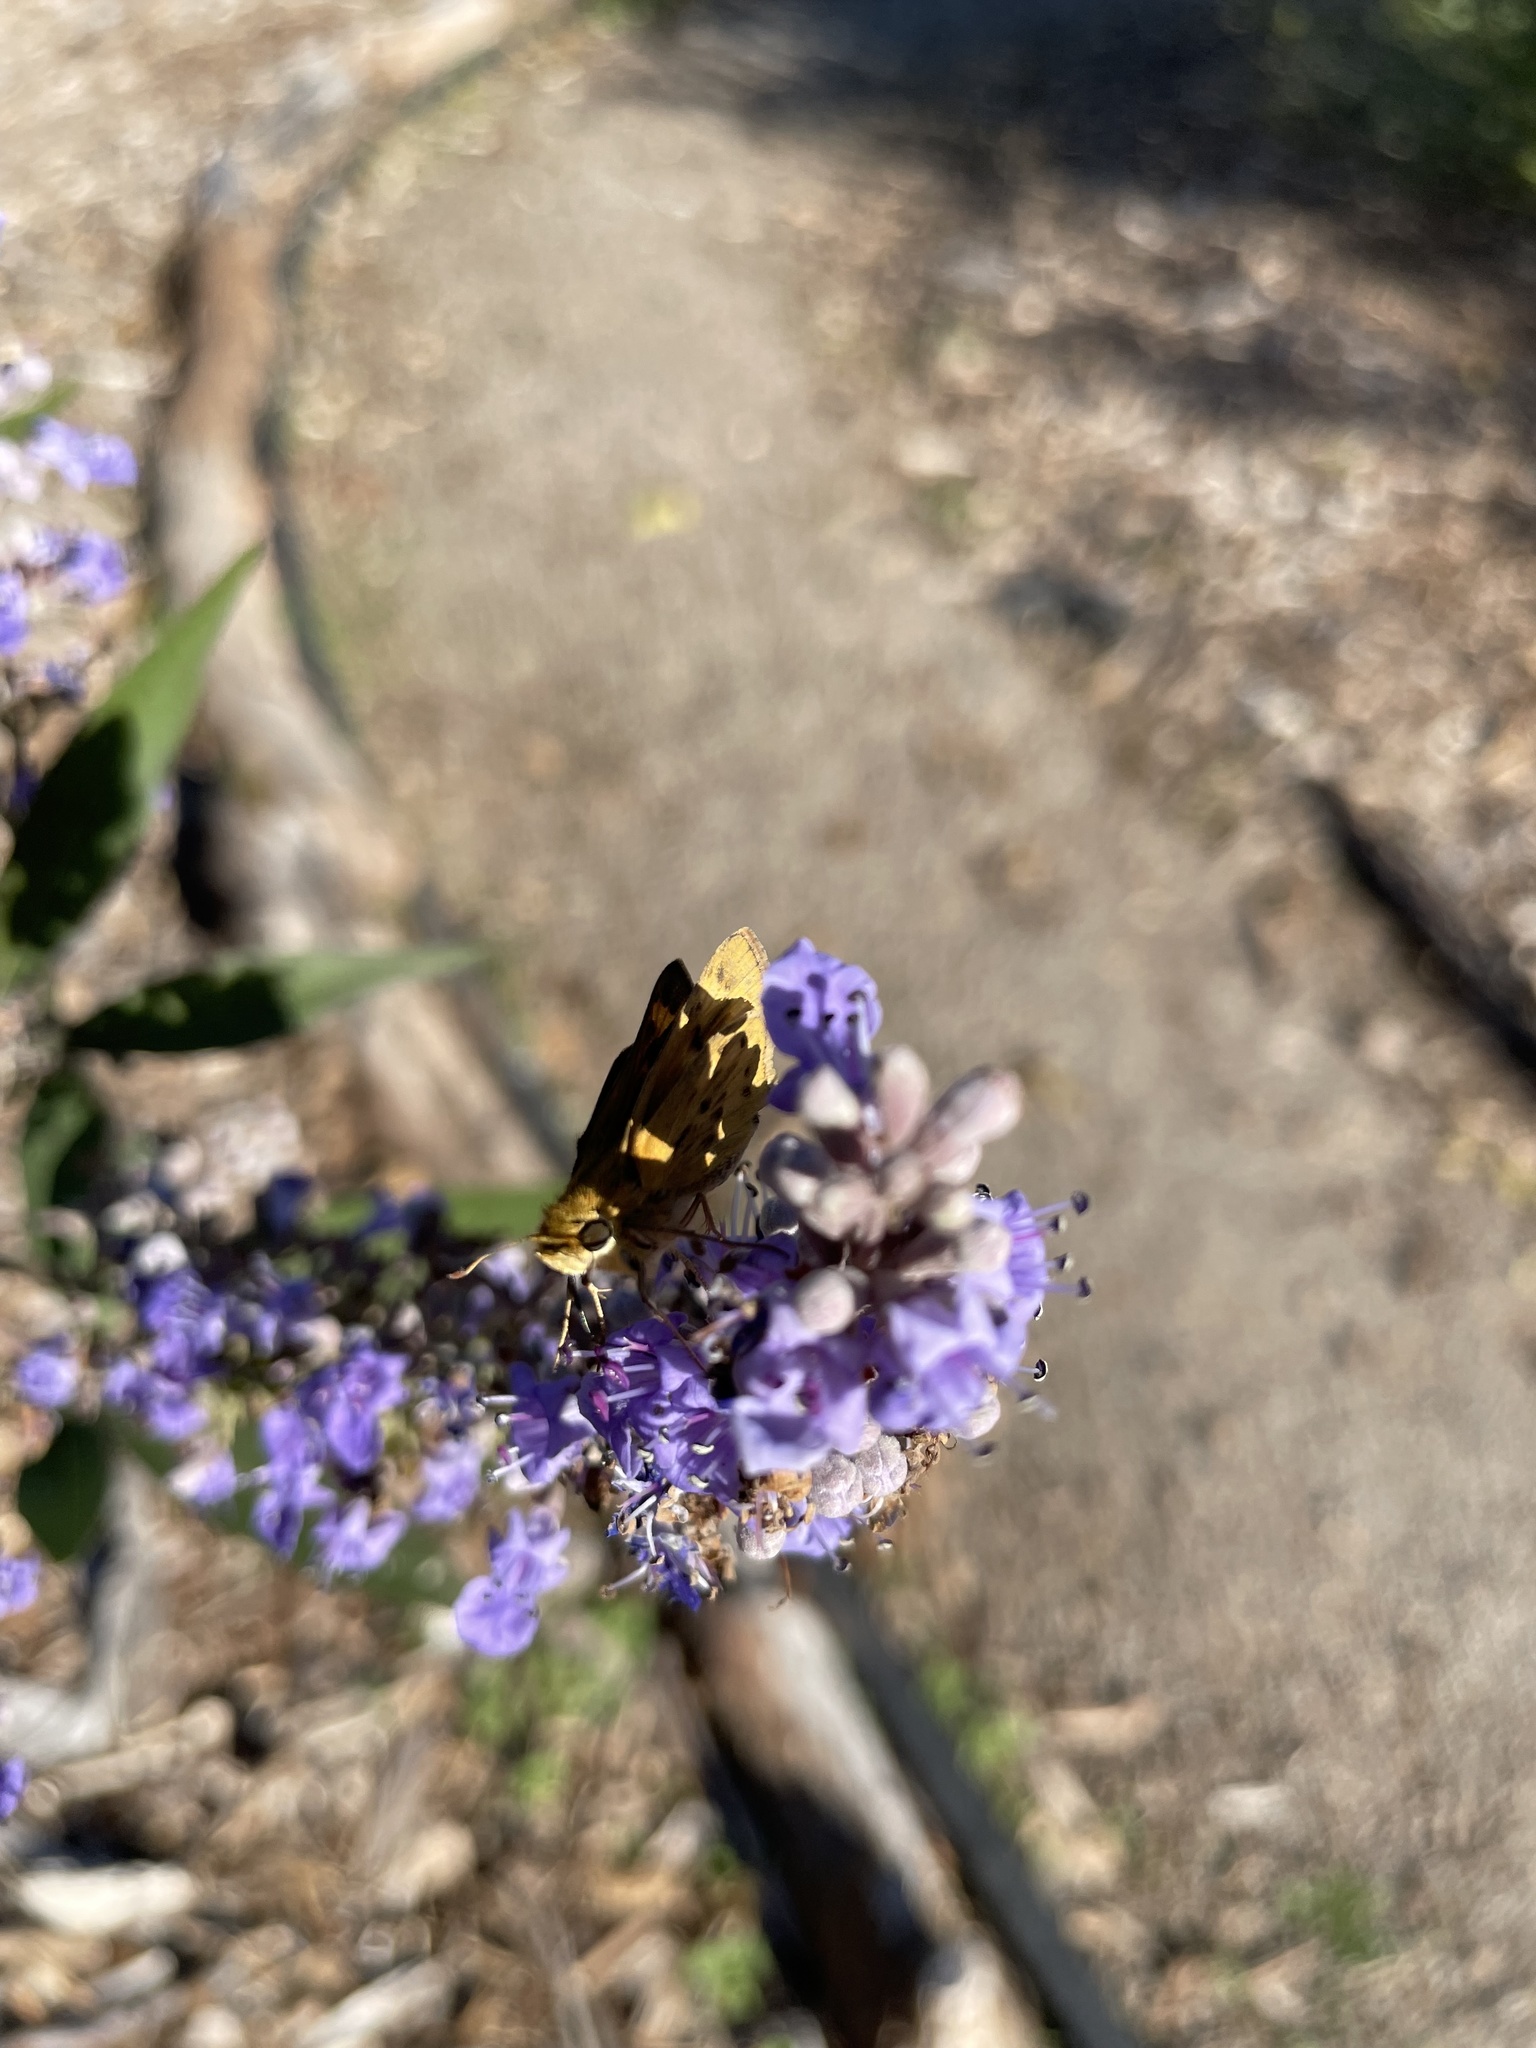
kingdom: Animalia
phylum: Arthropoda
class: Insecta
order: Lepidoptera
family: Hesperiidae
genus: Hylephila
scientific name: Hylephila phyleus
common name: Fiery skipper
